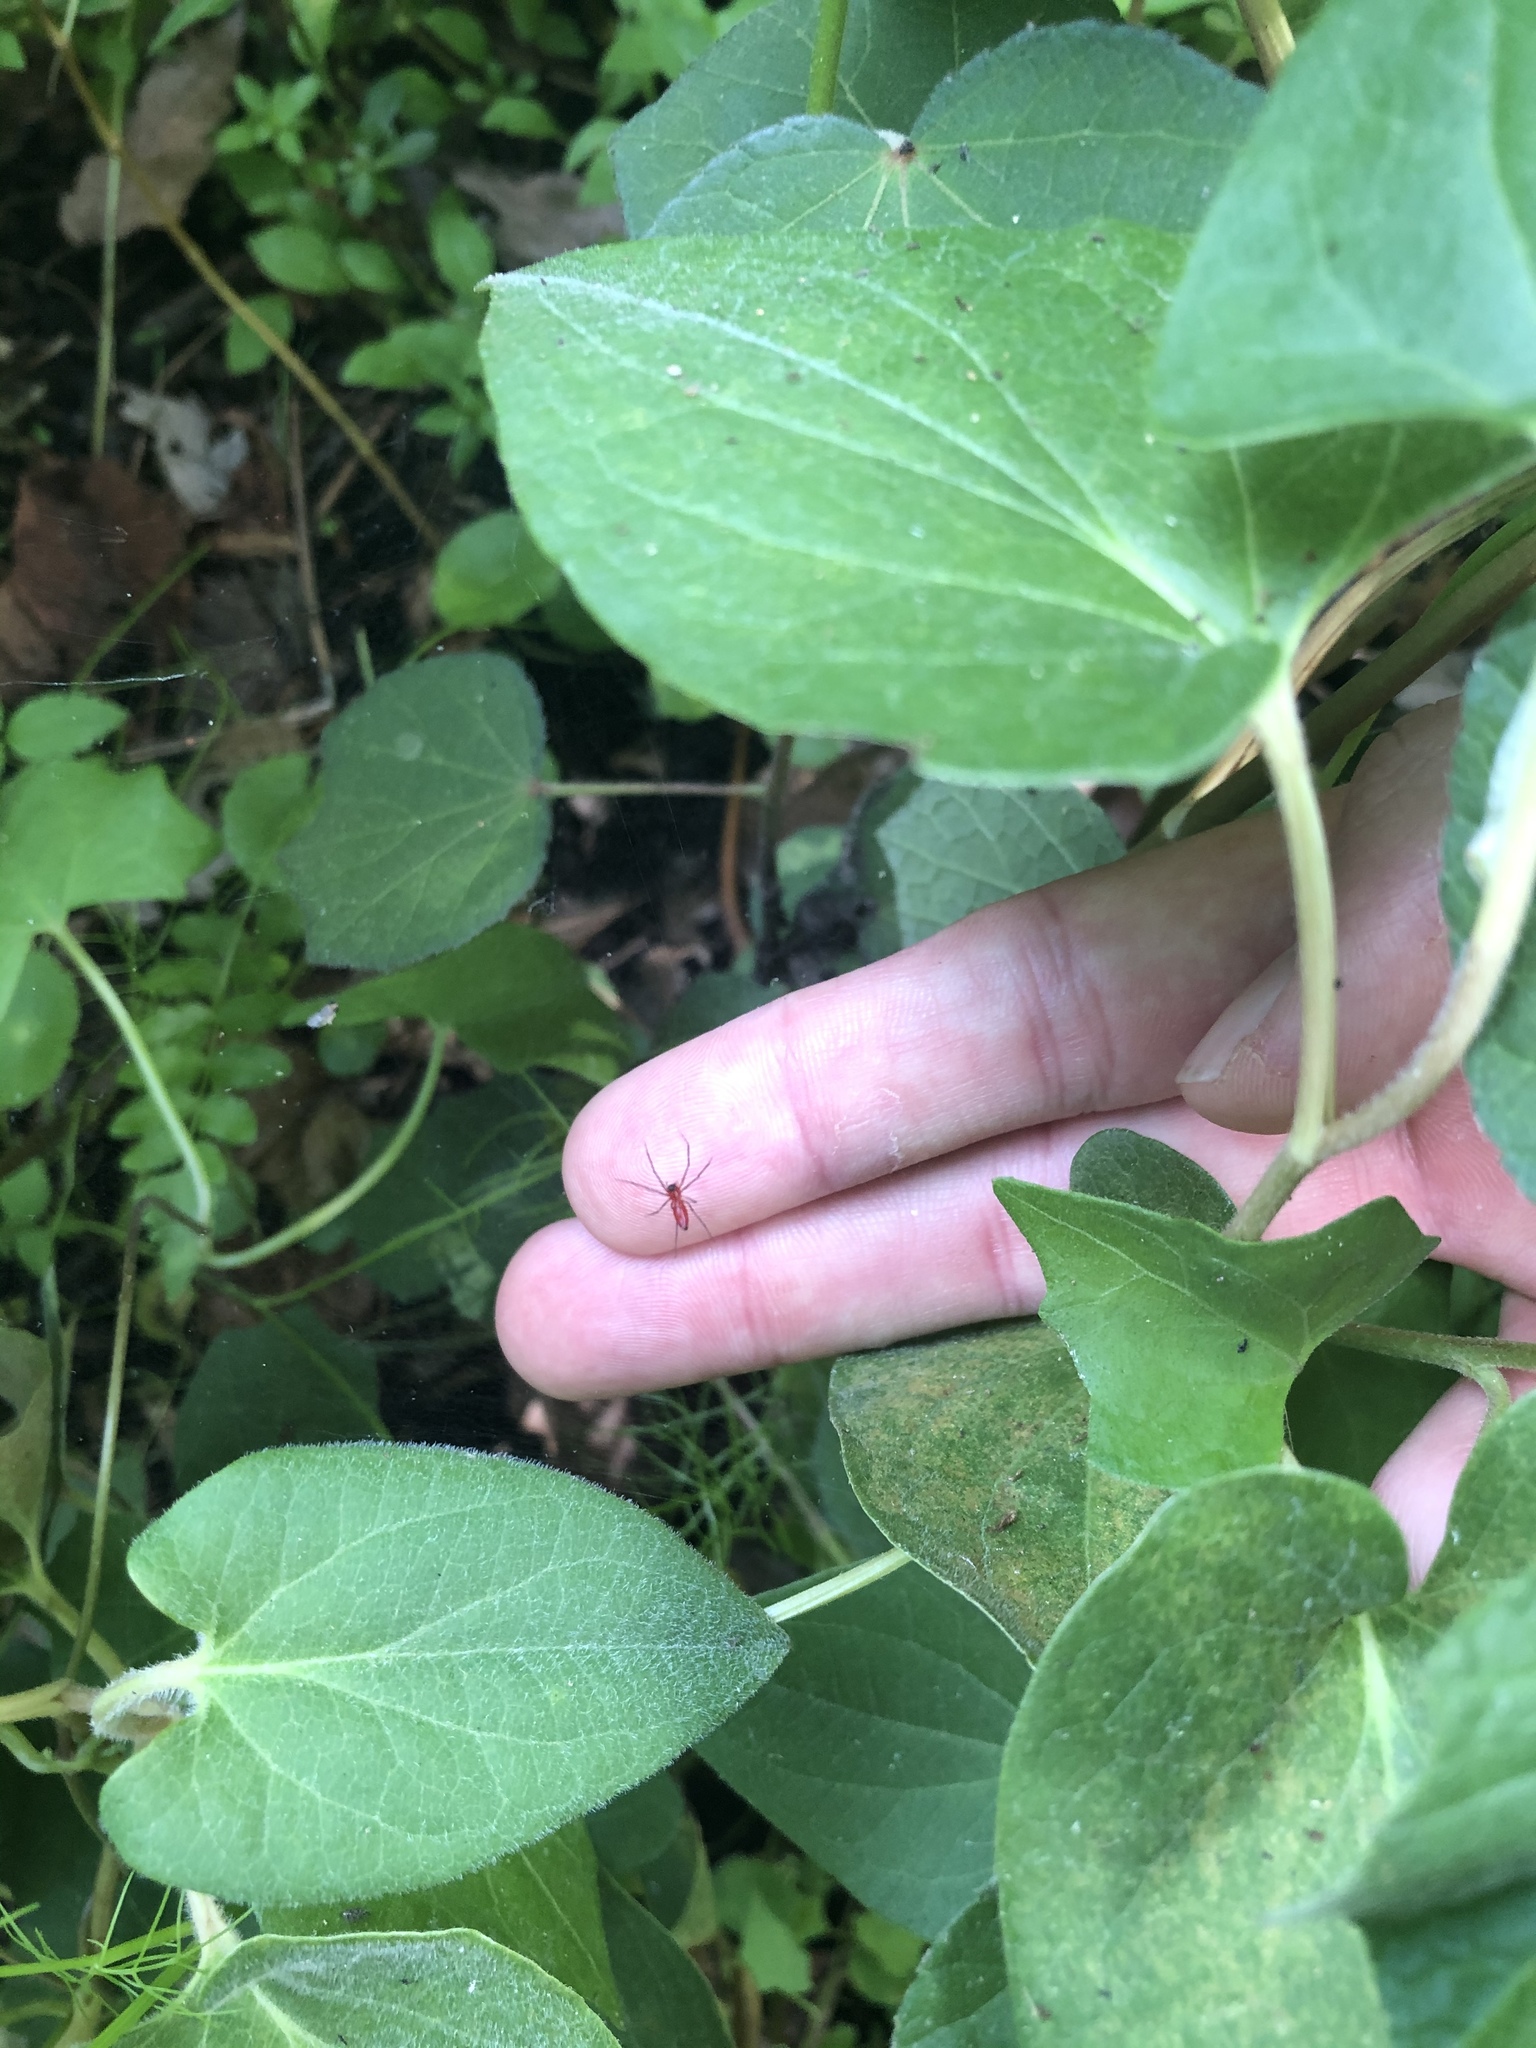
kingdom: Animalia
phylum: Arthropoda
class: Arachnida
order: Araneae
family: Linyphiidae
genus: Florinda
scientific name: Florinda coccinea
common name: Black-tailed red sheetweaver
